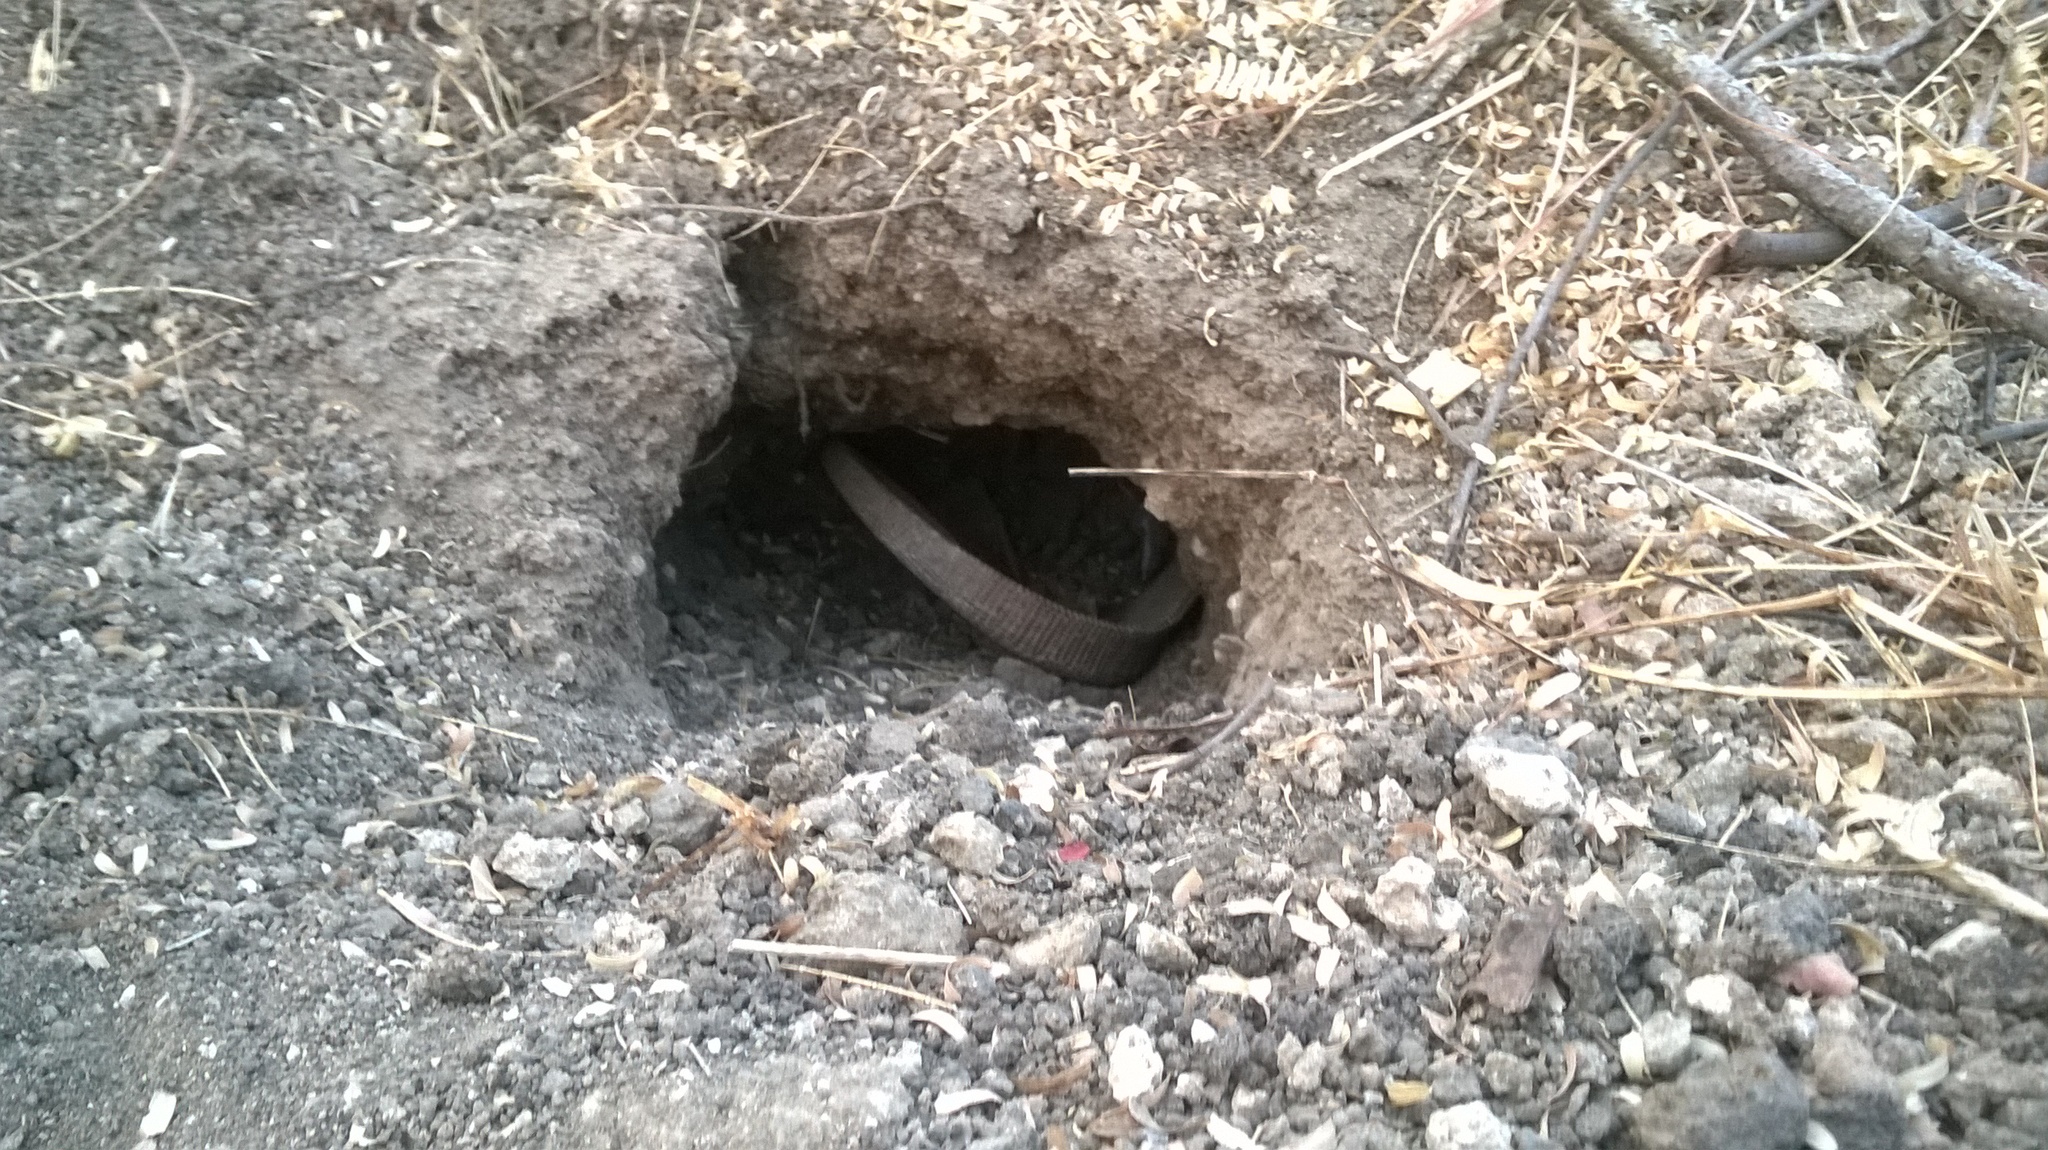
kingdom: Animalia
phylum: Chordata
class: Squamata
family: Varanidae
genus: Varanus
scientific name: Varanus bengalensis
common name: Bengal monitor
